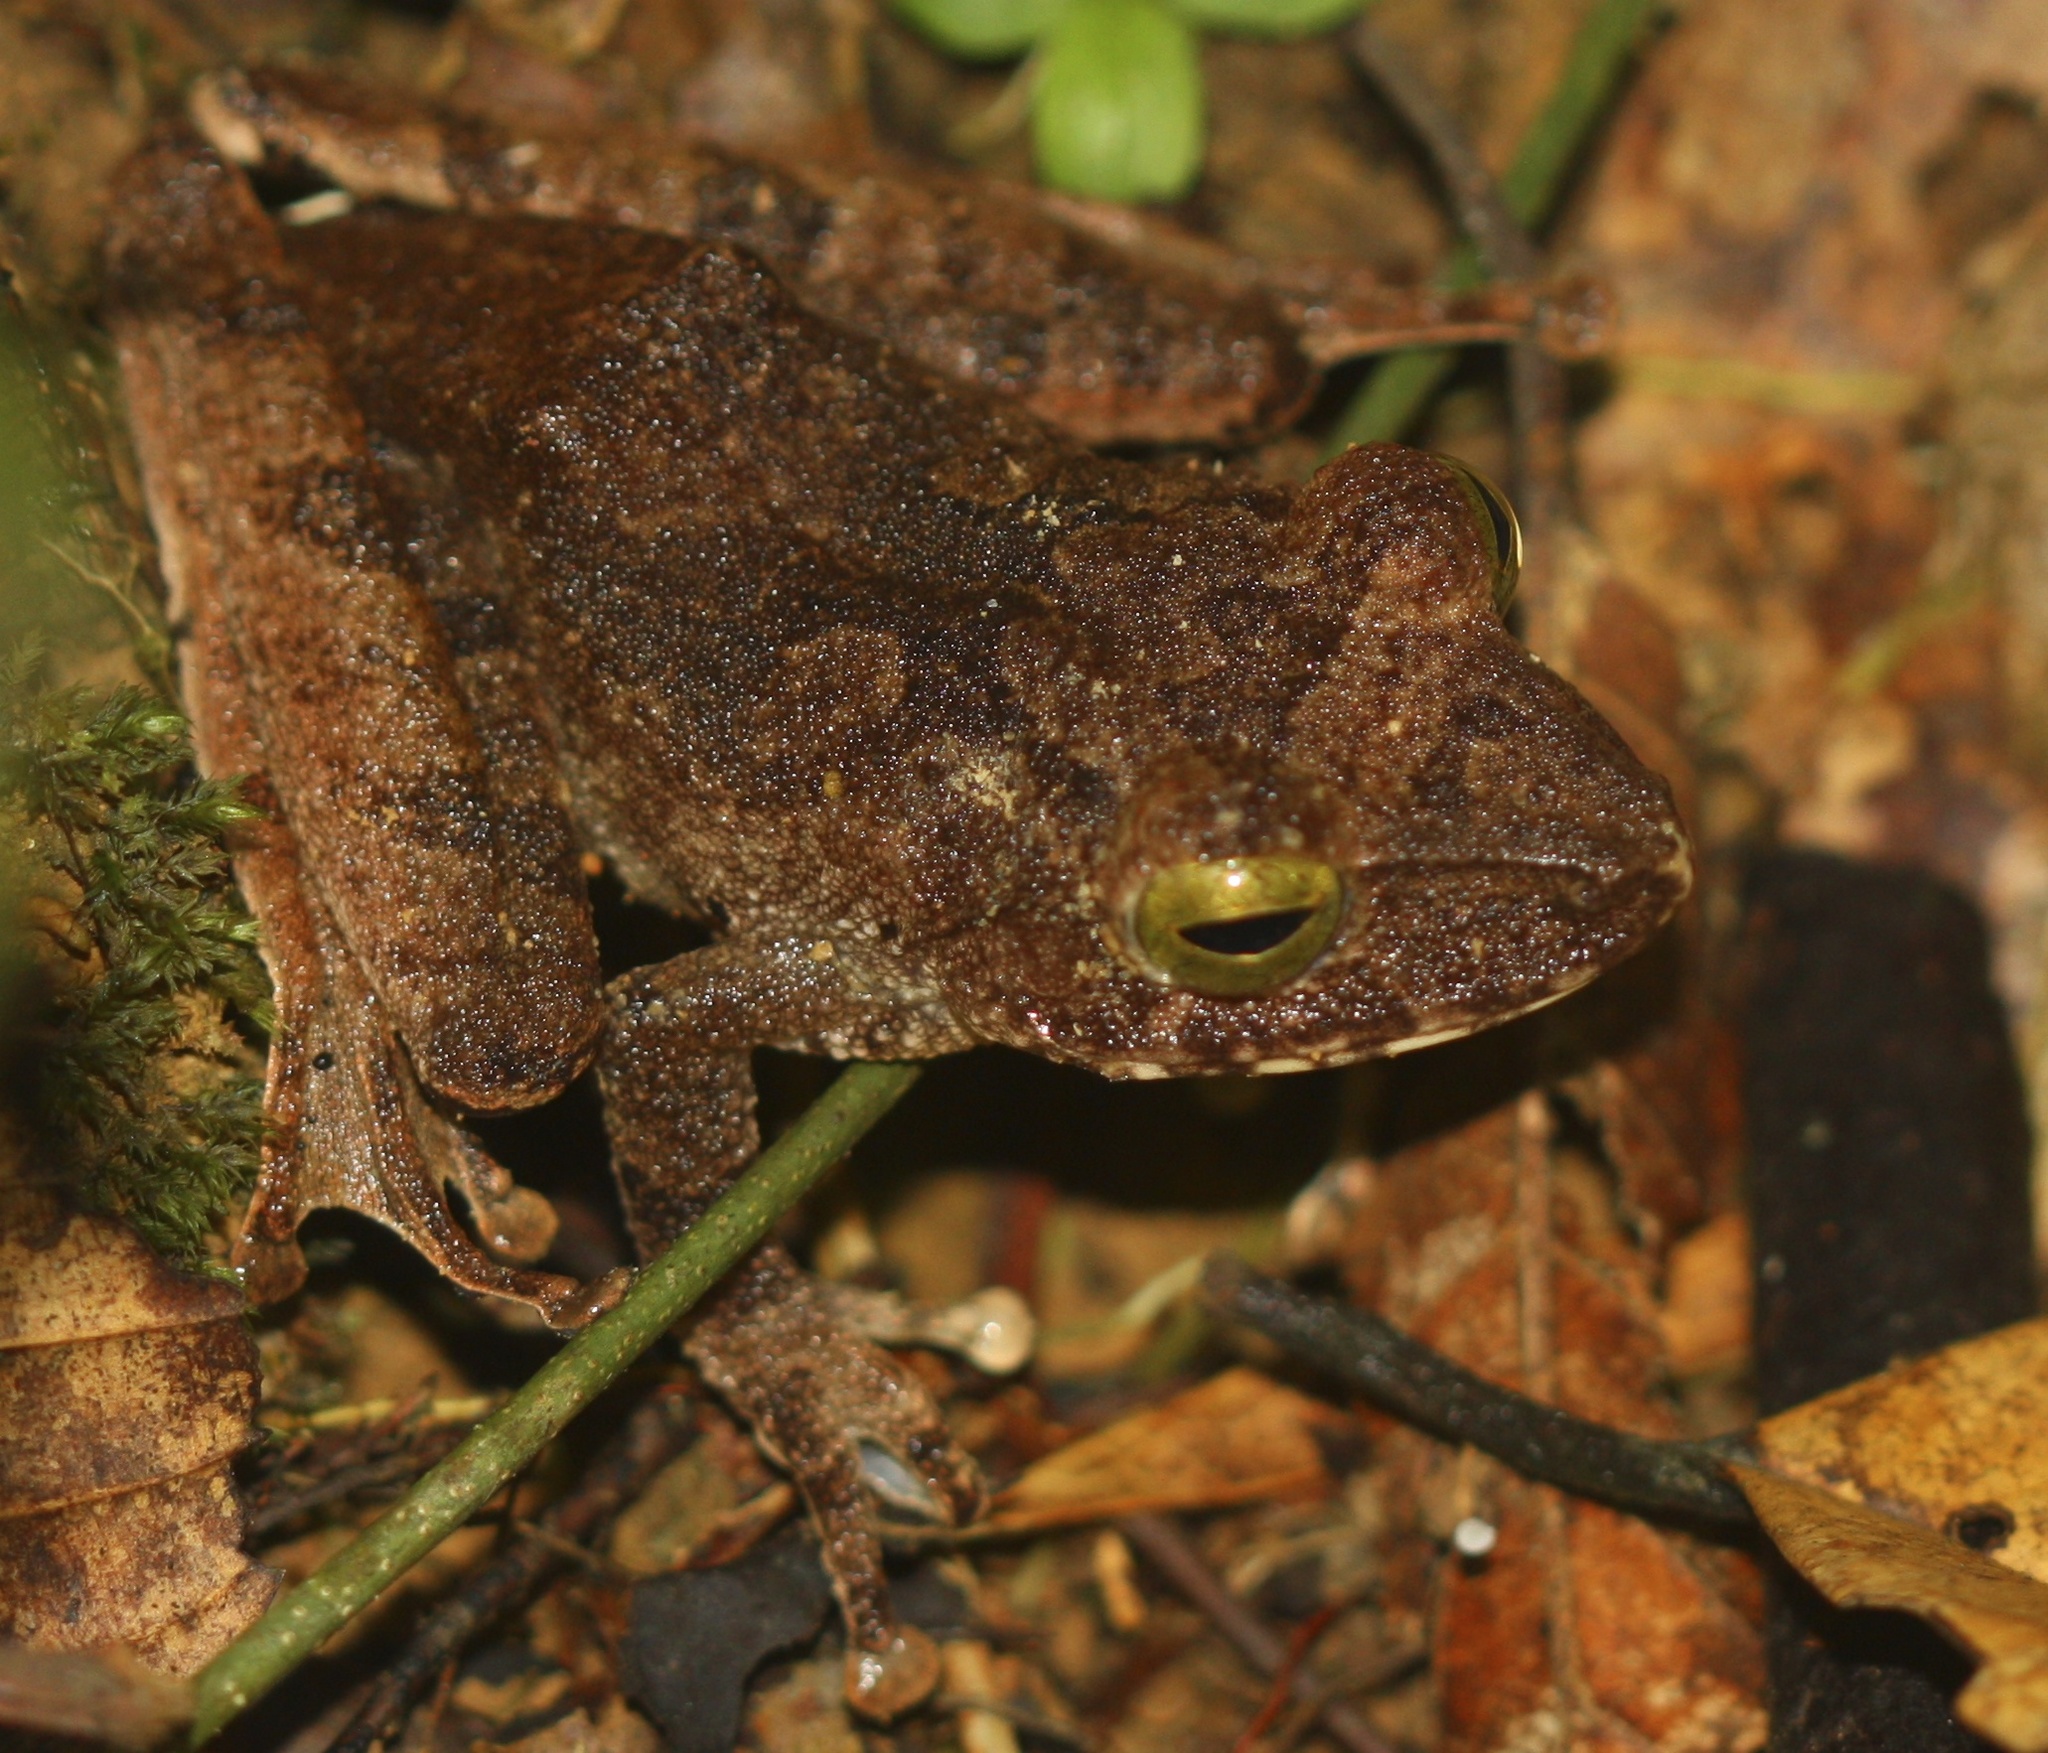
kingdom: Animalia
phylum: Chordata
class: Amphibia
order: Anura
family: Rhacophoridae
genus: Philautus
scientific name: Philautus hosii
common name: Borneo bubble-nest frog
